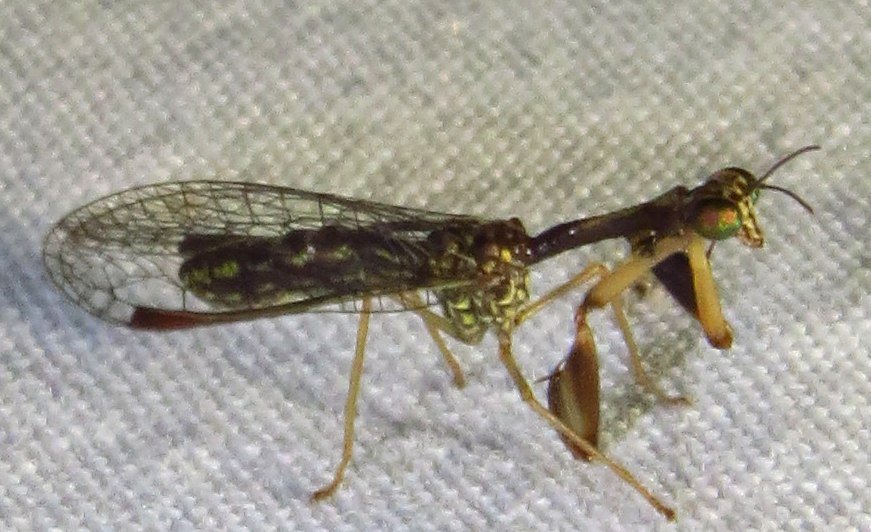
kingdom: Animalia
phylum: Arthropoda
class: Insecta
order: Neuroptera
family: Mantispidae
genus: Leptomantispa
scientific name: Leptomantispa pulchella
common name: Stevens's mantidfly
